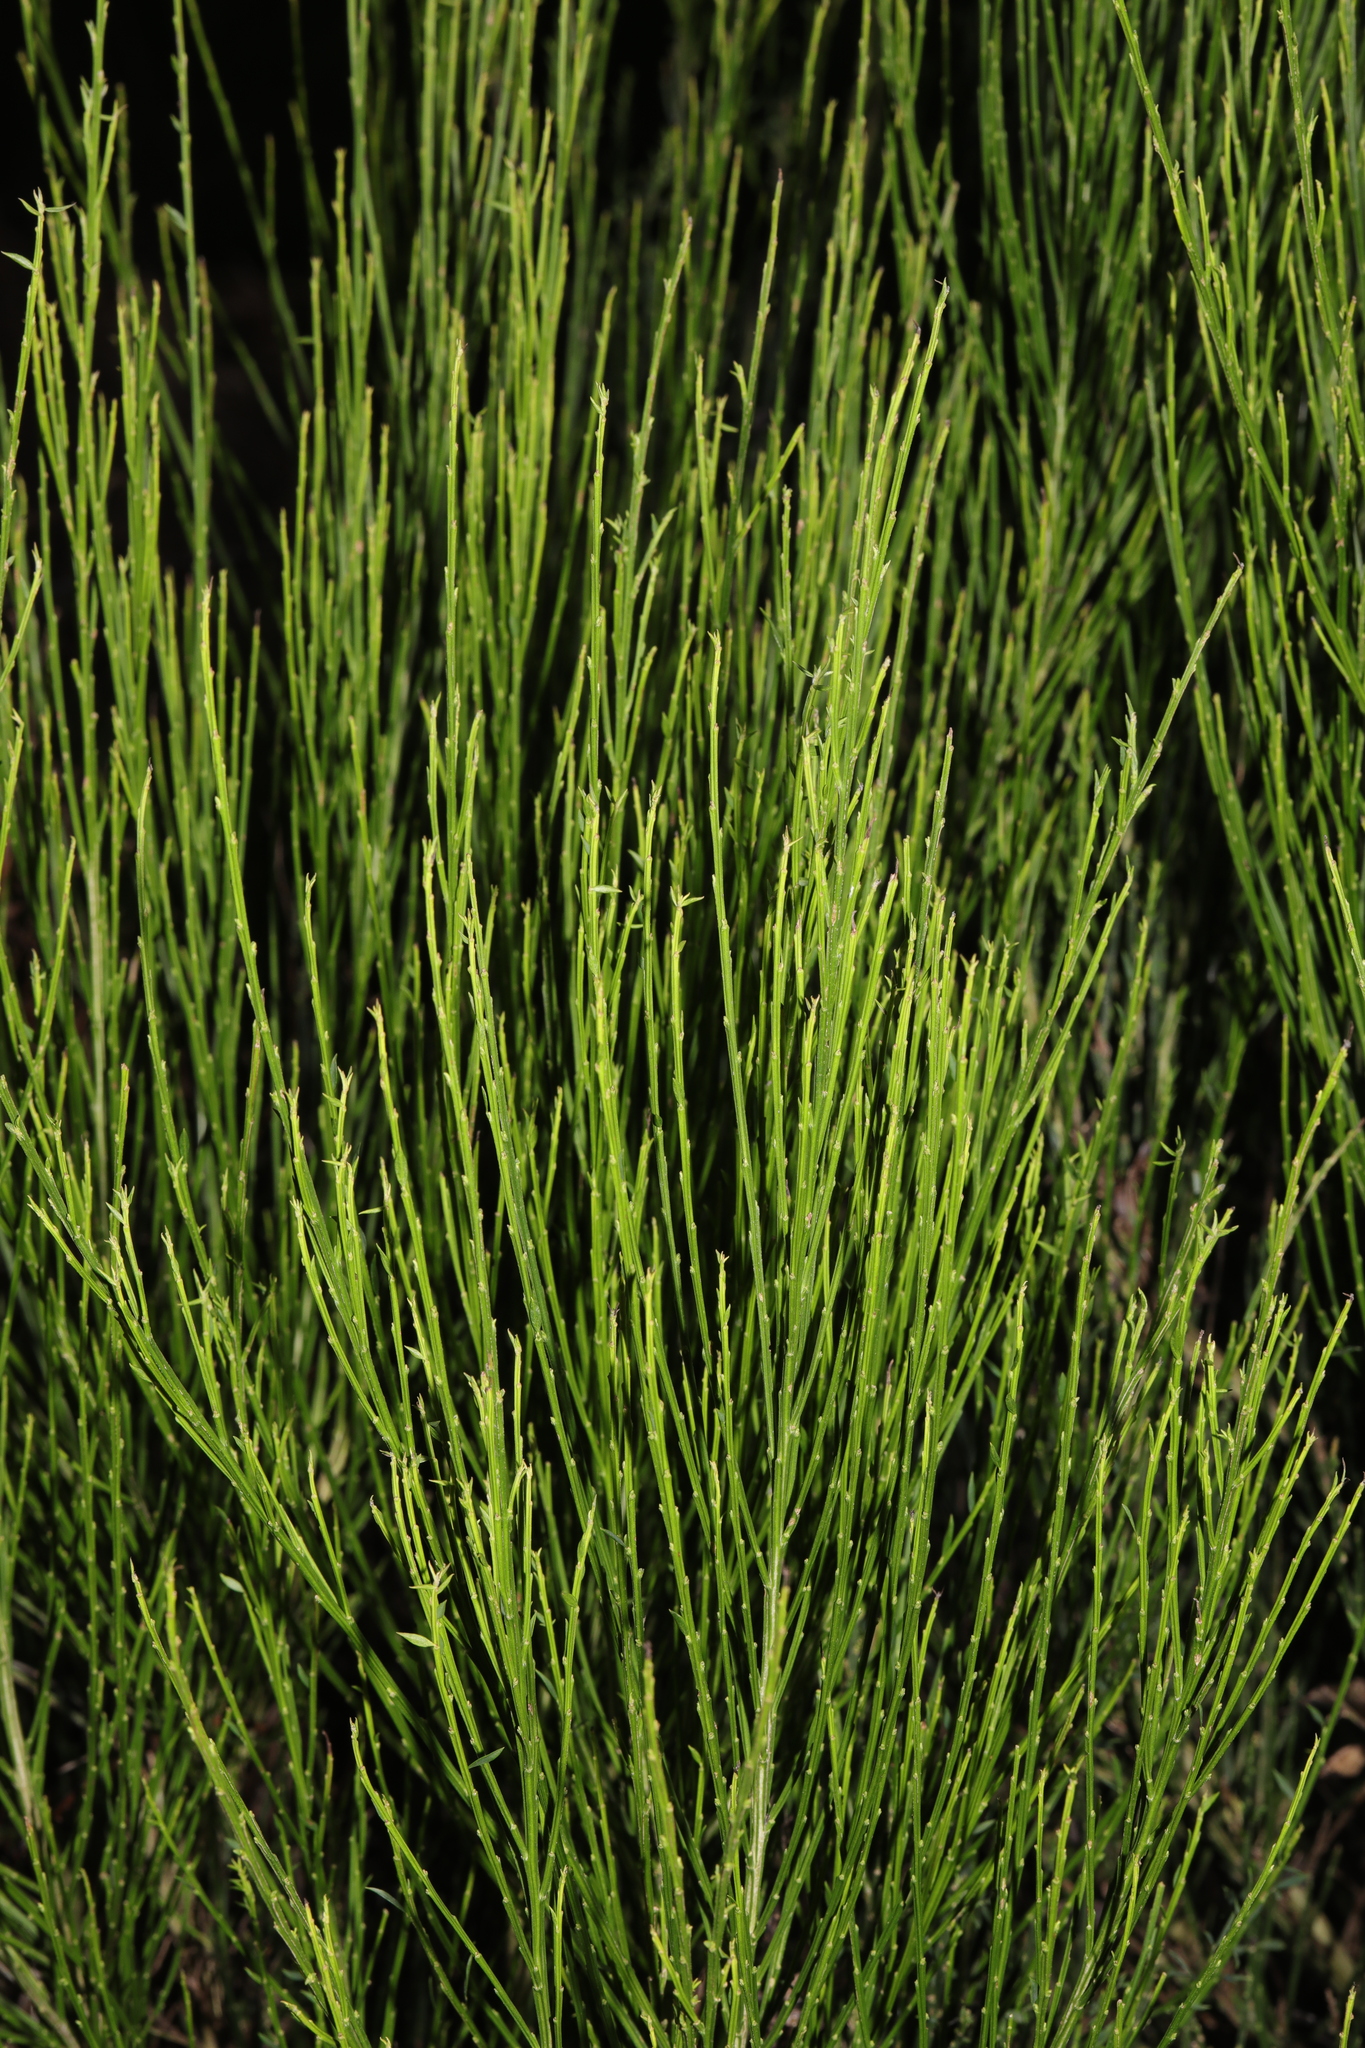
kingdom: Plantae
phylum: Tracheophyta
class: Magnoliopsida
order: Fabales
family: Fabaceae
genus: Cytisus
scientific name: Cytisus scoparius
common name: Scotch broom
